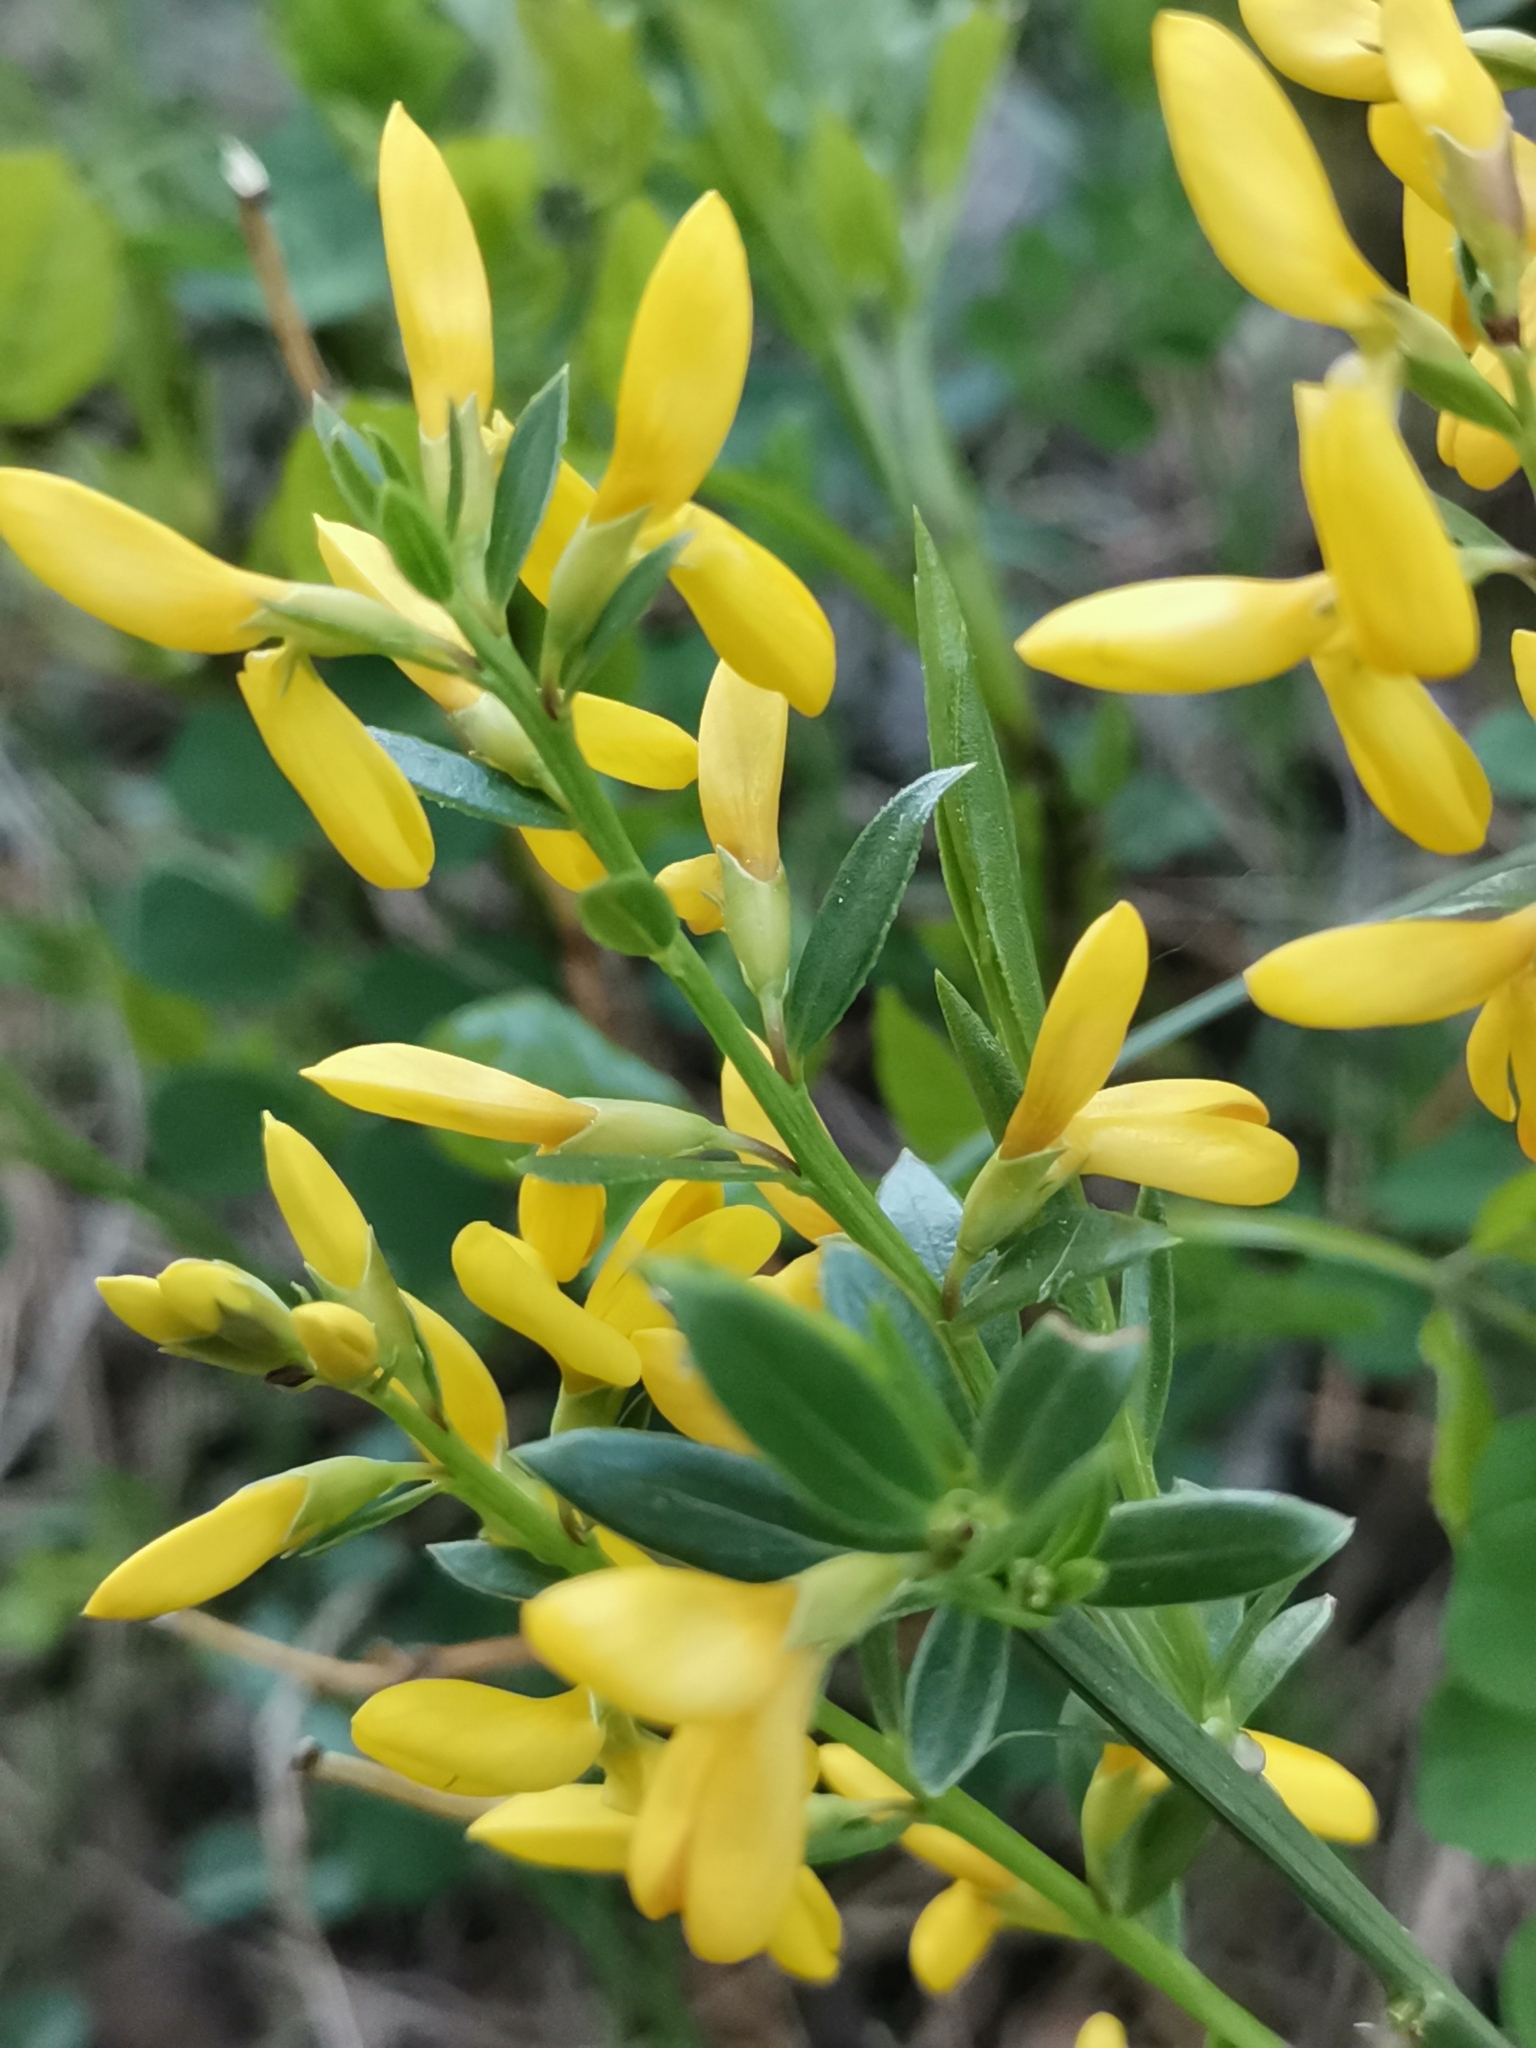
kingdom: Plantae
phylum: Tracheophyta
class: Magnoliopsida
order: Fabales
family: Fabaceae
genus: Genista
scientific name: Genista januensis
